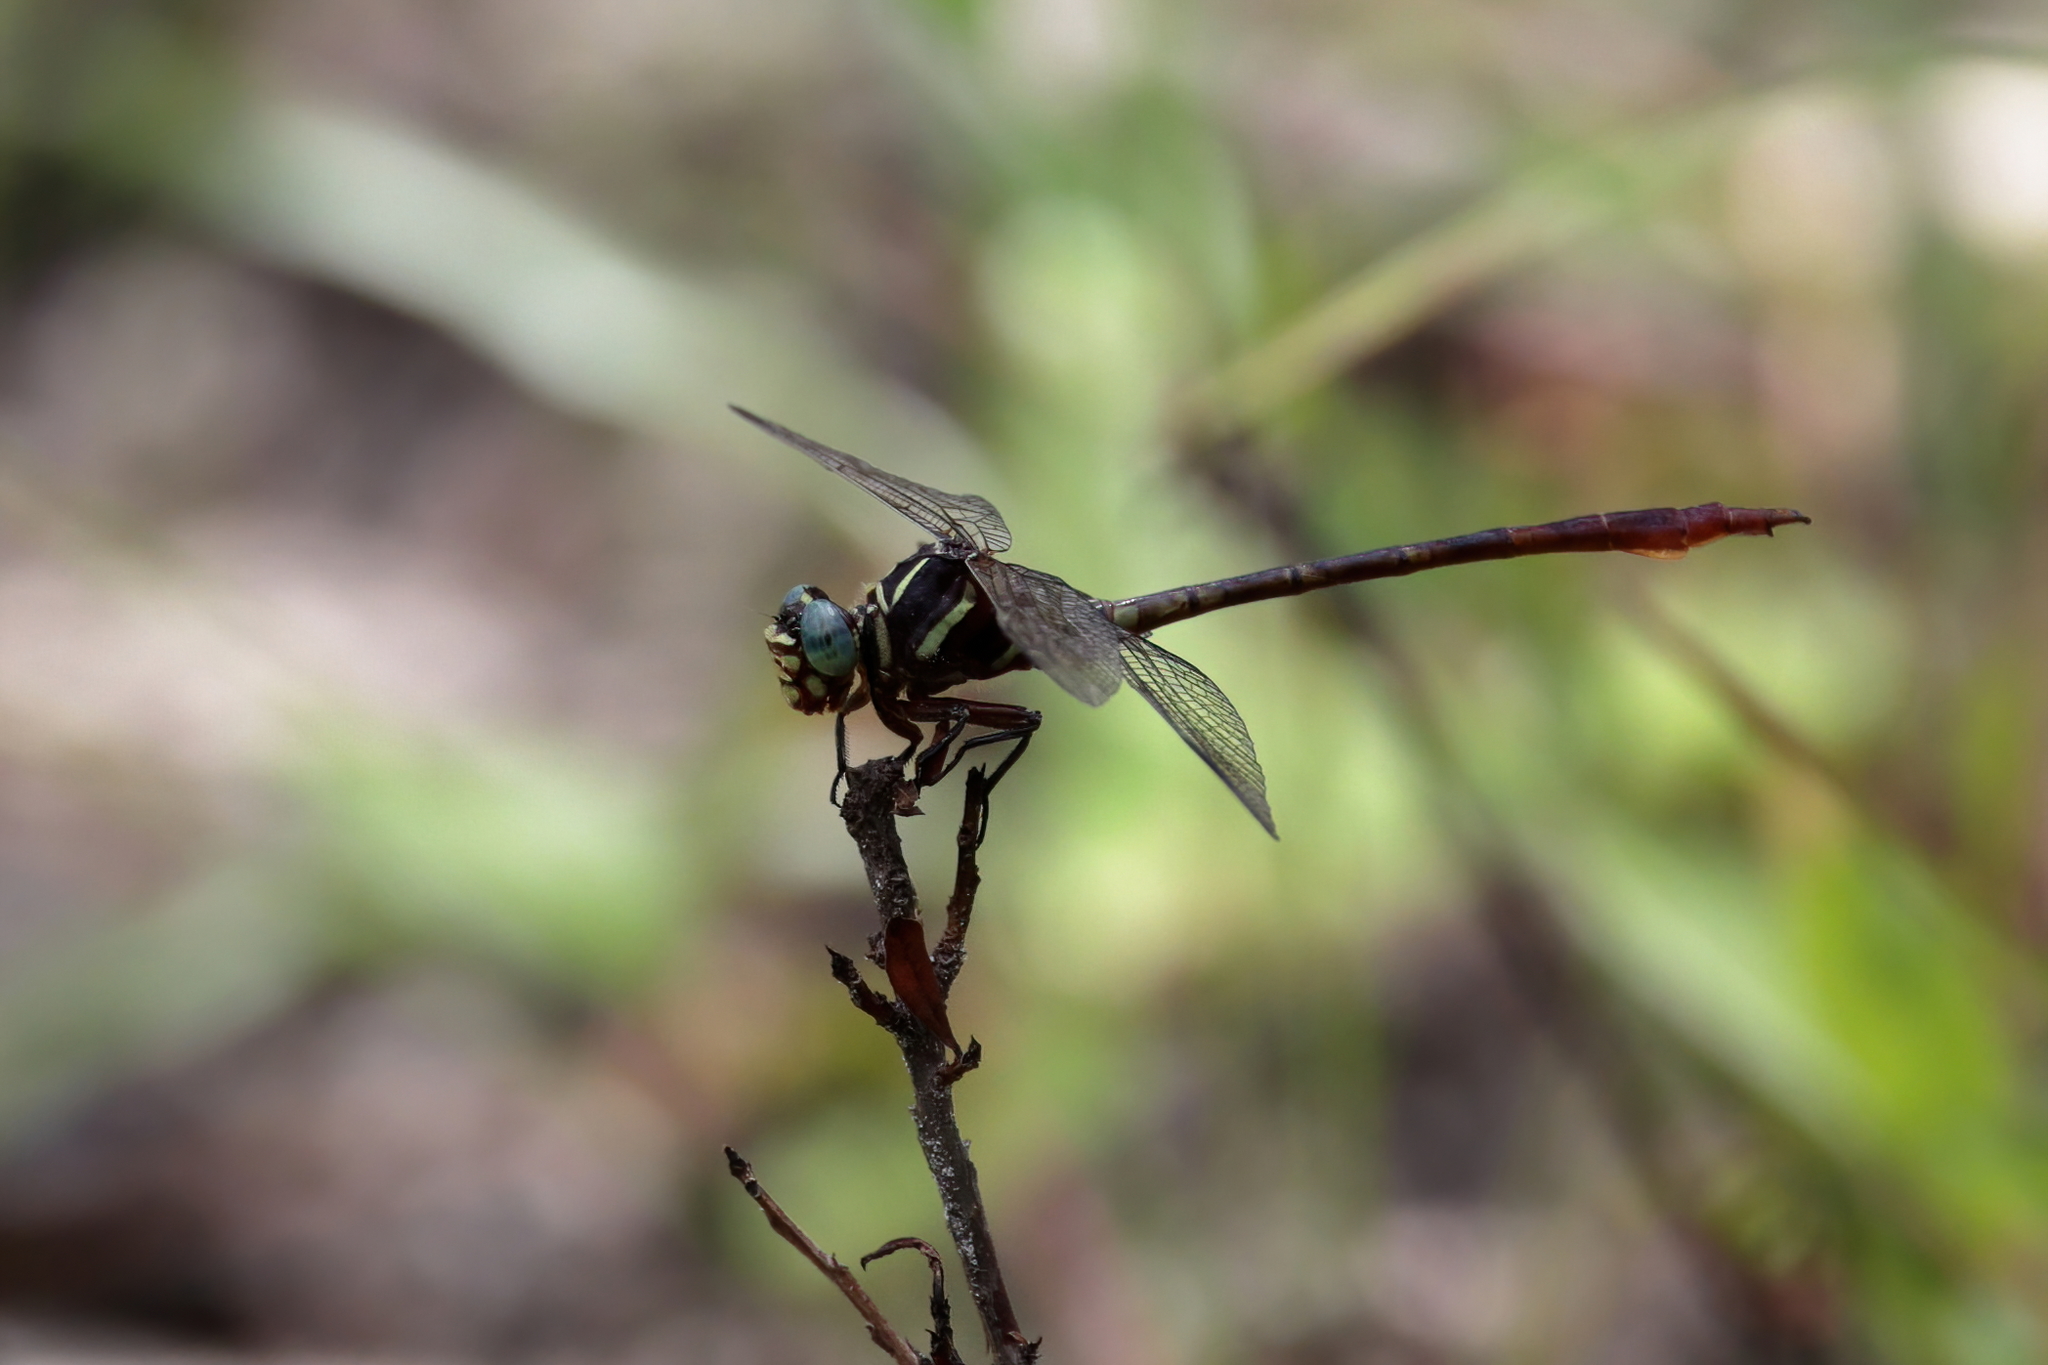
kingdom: Animalia
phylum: Arthropoda
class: Insecta
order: Odonata
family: Gomphidae
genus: Aphylla
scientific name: Aphylla williamsoni
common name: Two-striped forceptail
